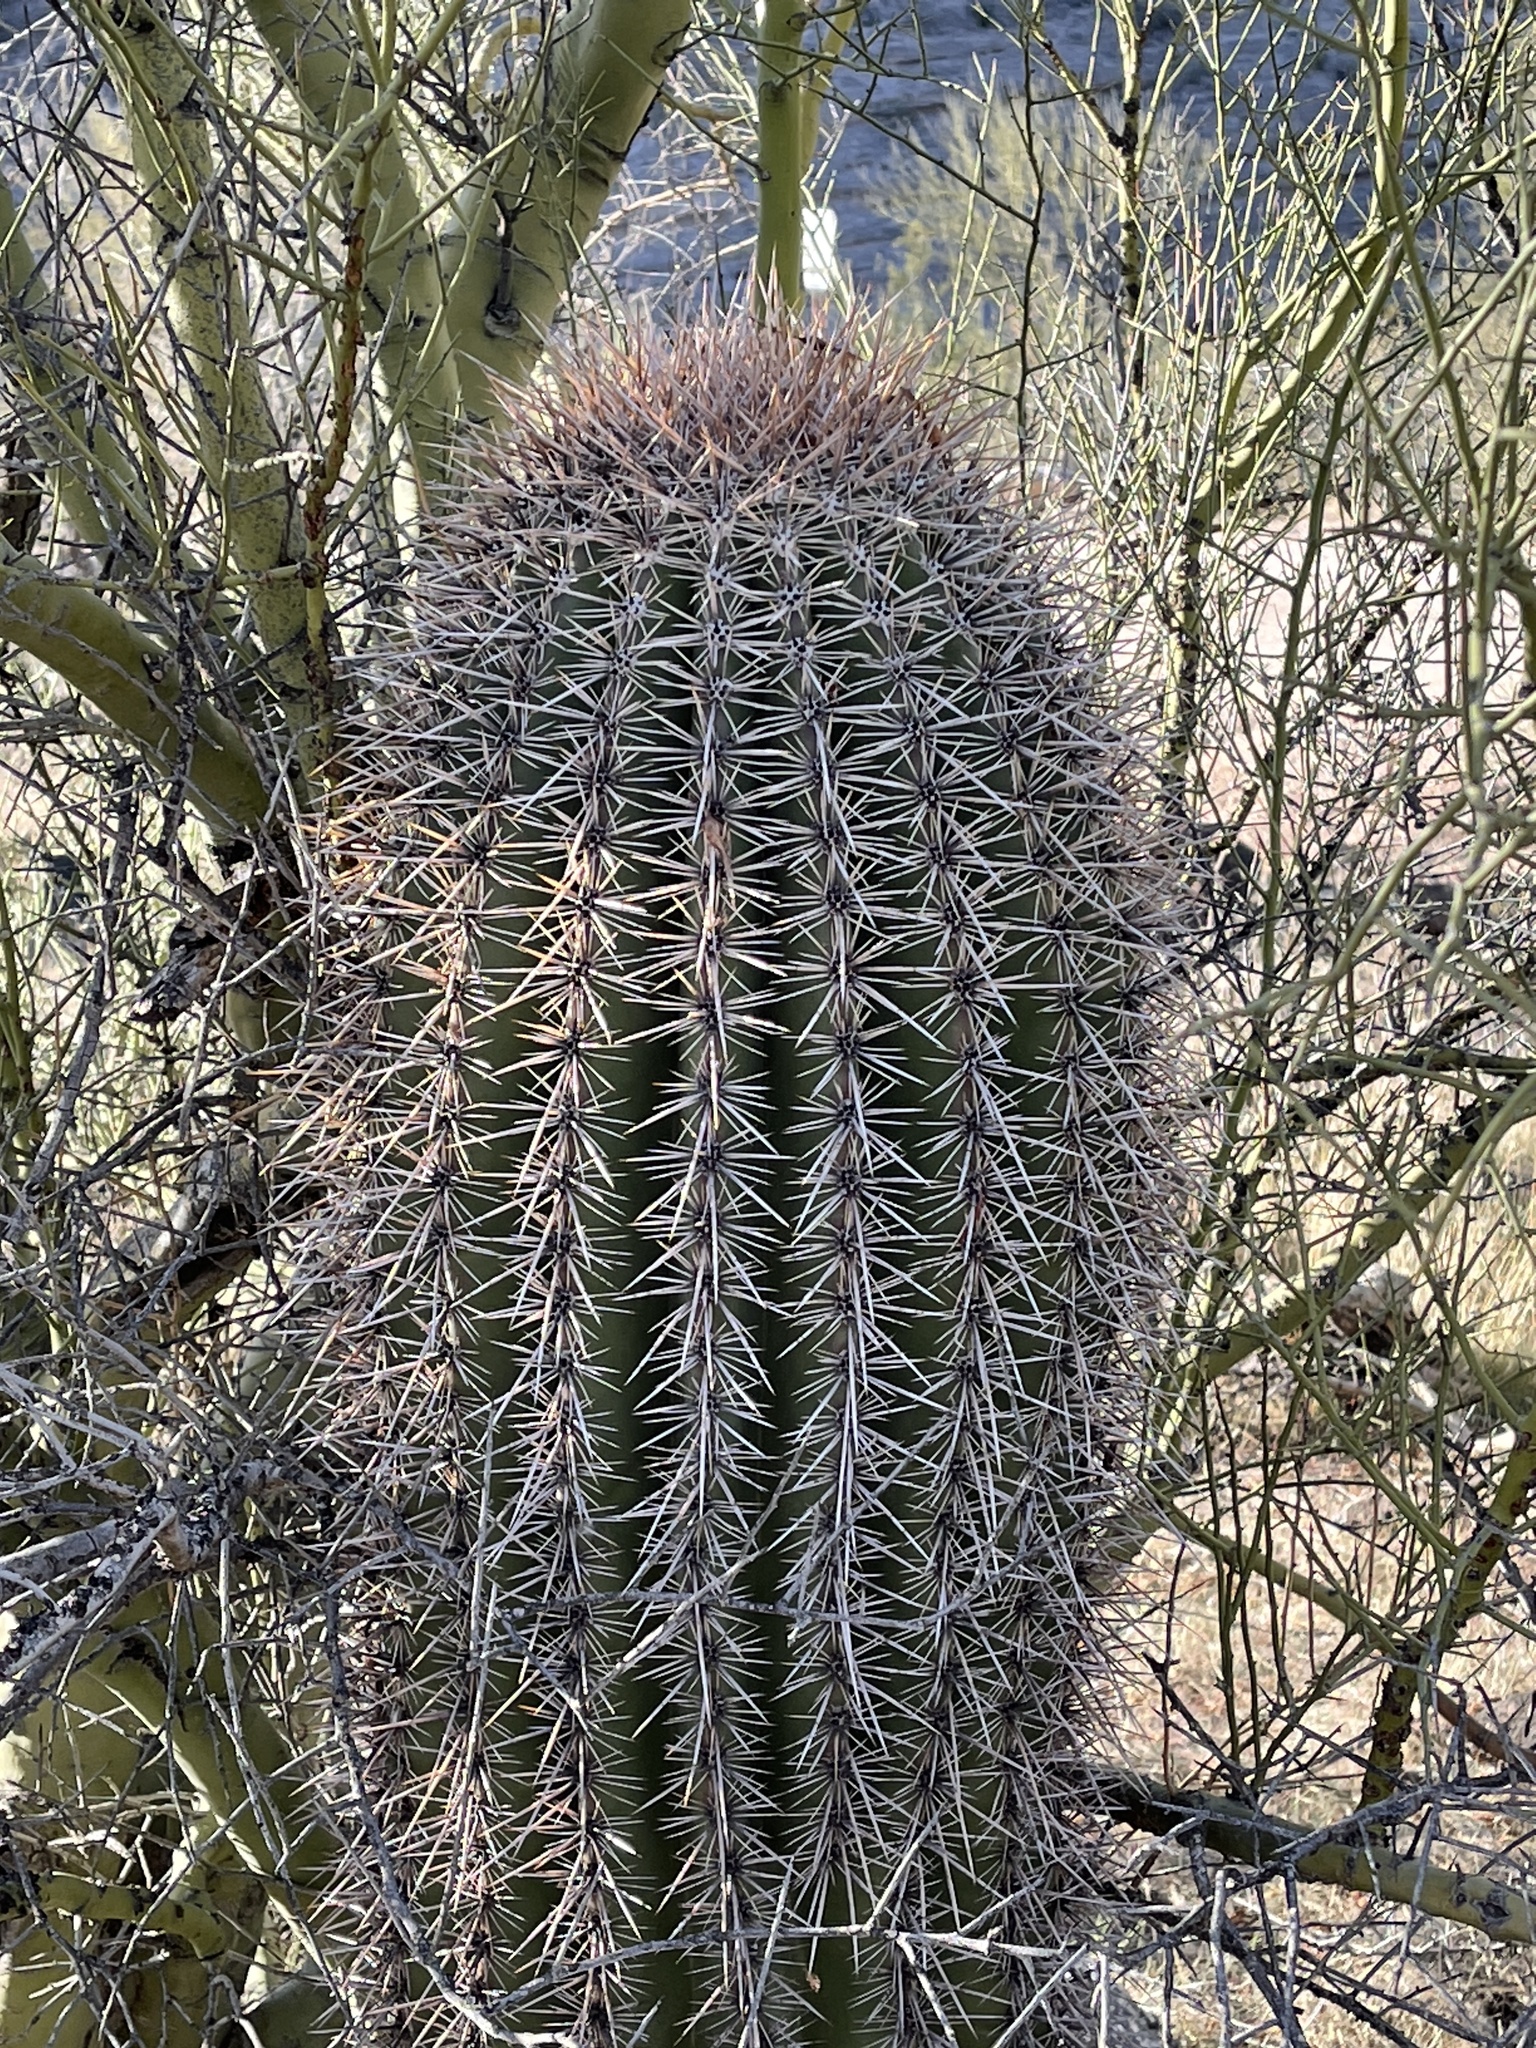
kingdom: Plantae
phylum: Tracheophyta
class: Magnoliopsida
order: Caryophyllales
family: Cactaceae
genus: Carnegiea
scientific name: Carnegiea gigantea
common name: Saguaro
